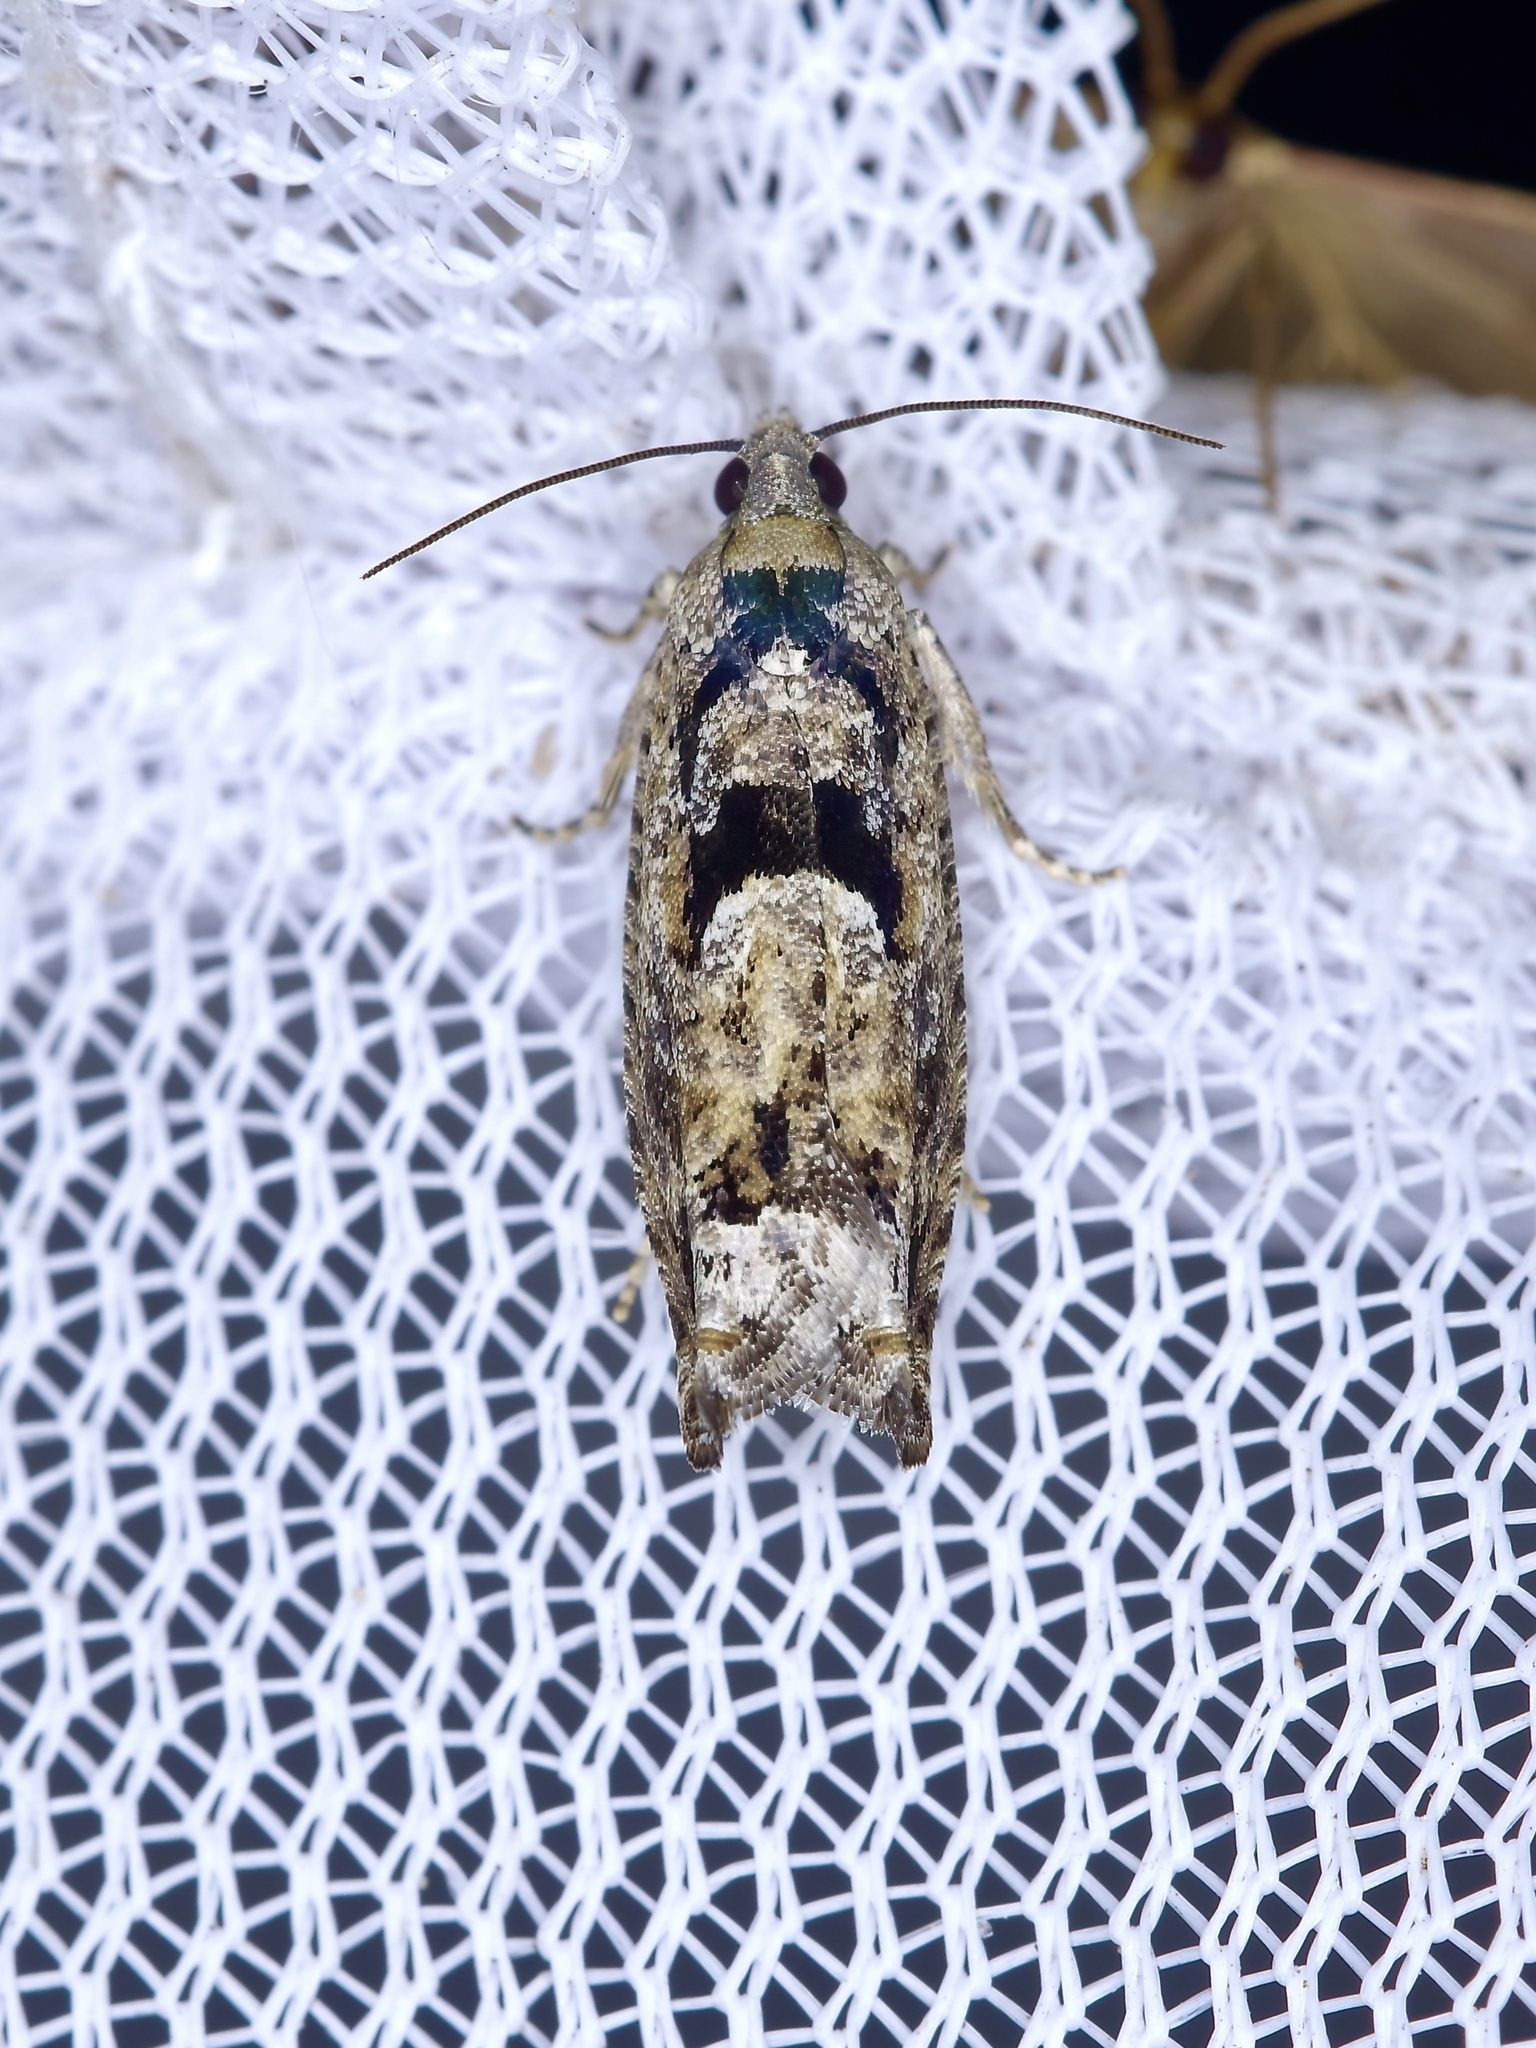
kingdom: Animalia
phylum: Arthropoda
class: Insecta
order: Lepidoptera
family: Tortricidae
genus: Pseudexentera
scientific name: Pseudexentera hodsoni
